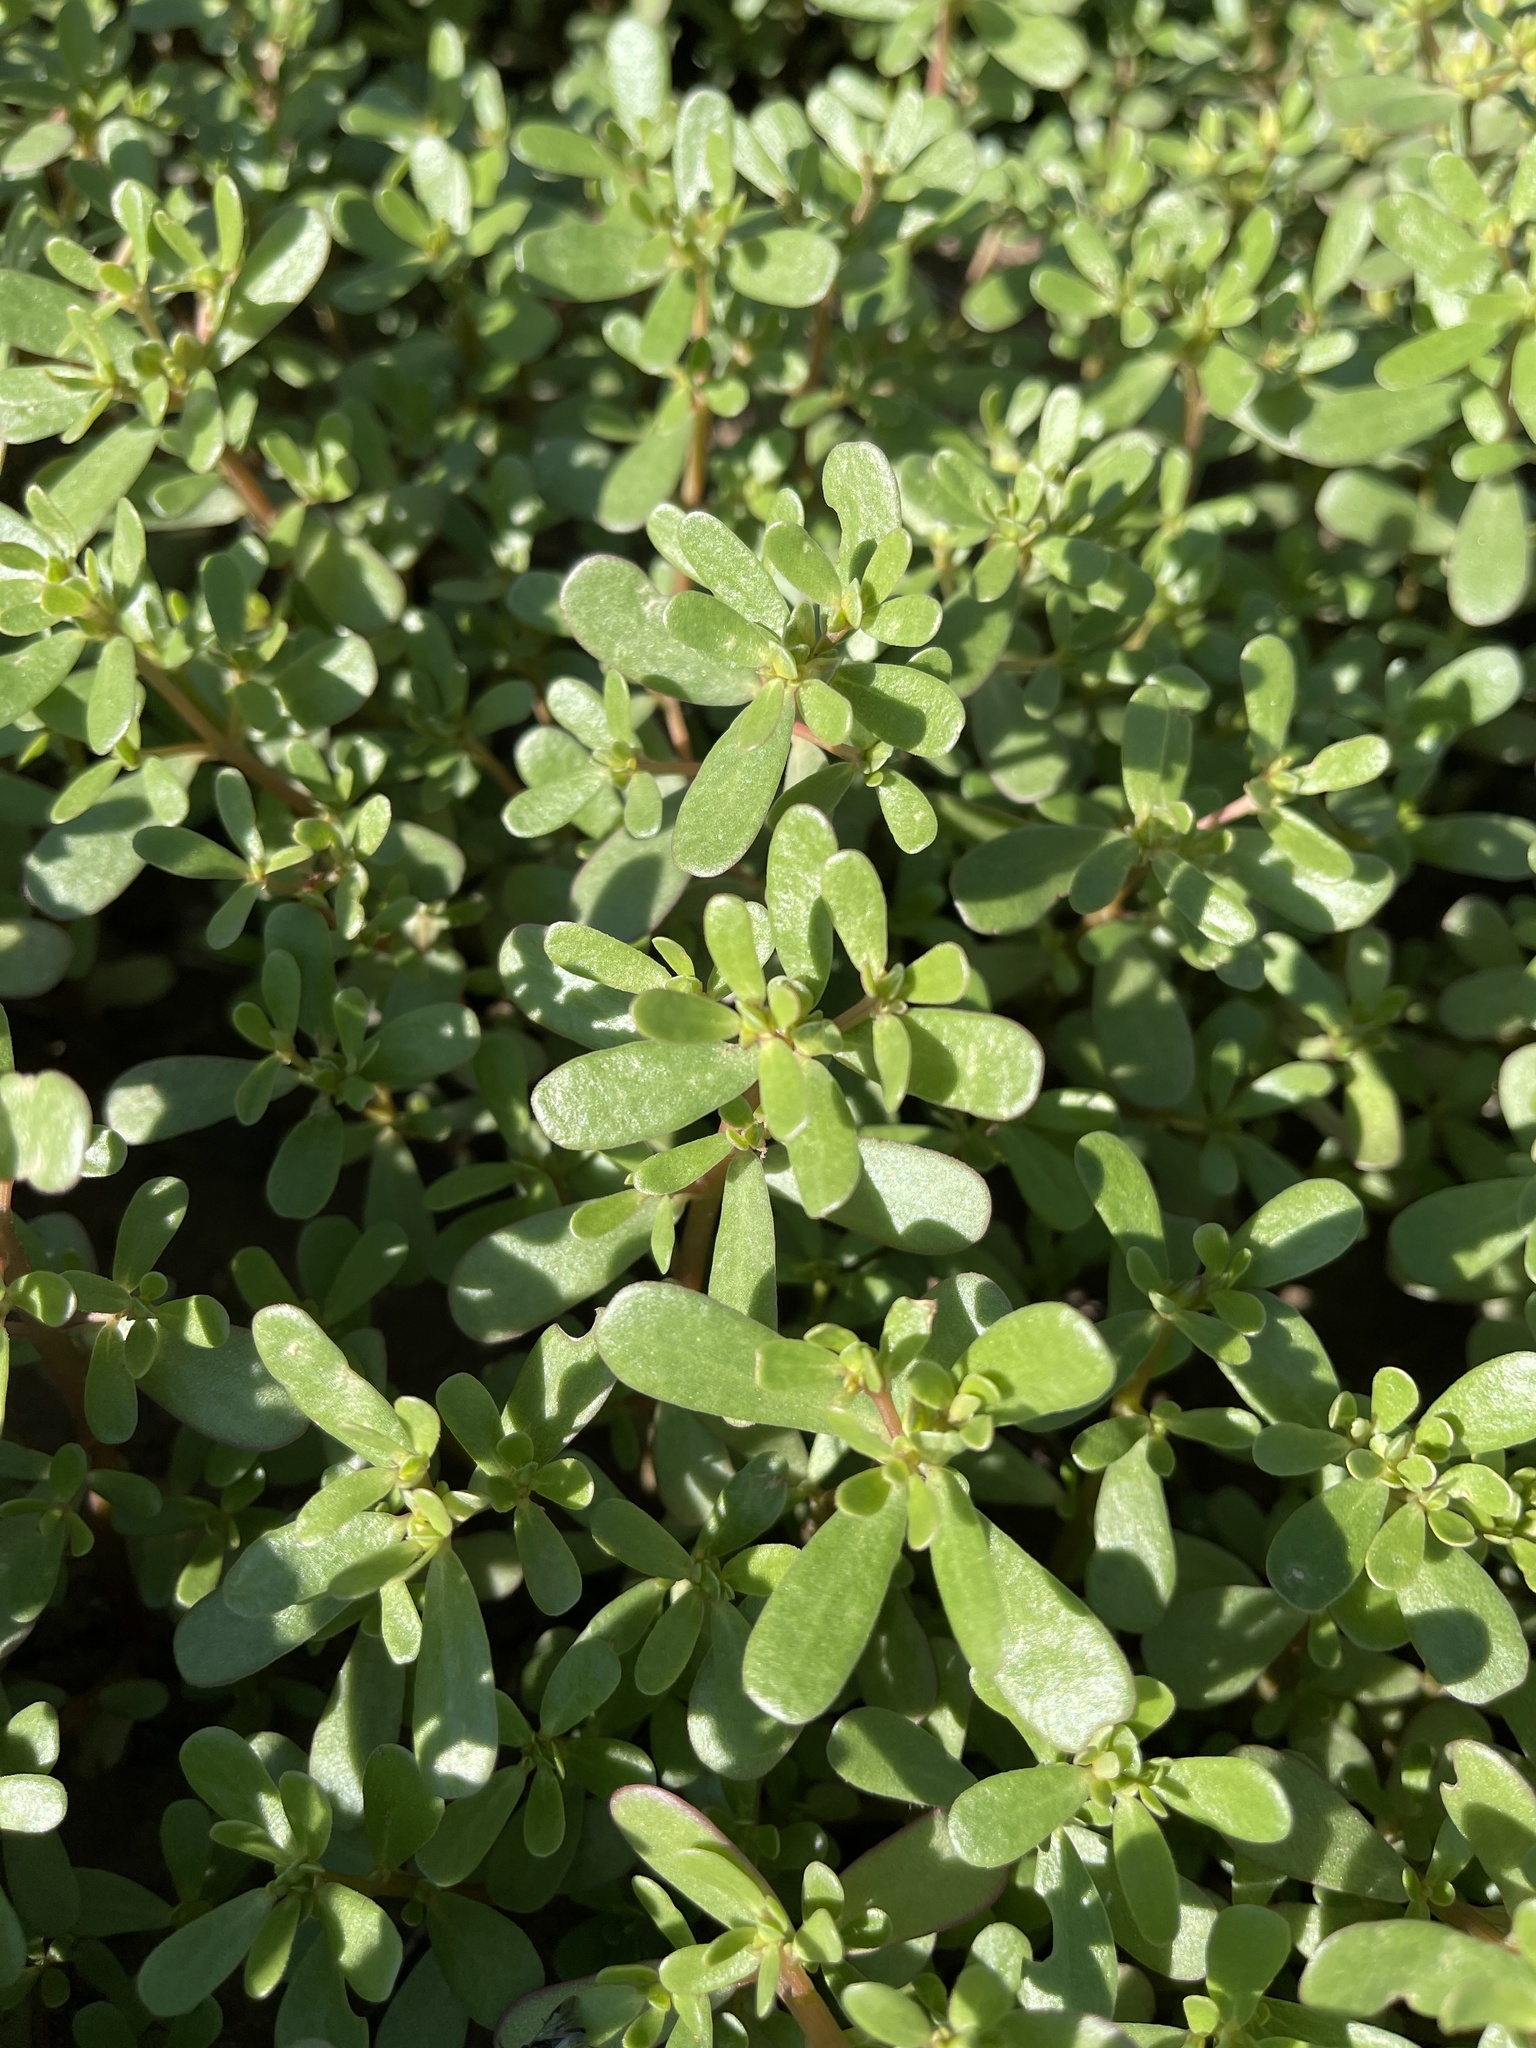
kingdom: Plantae
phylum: Tracheophyta
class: Magnoliopsida
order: Caryophyllales
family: Portulacaceae
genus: Portulaca
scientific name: Portulaca oleracea
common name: Common purslane
